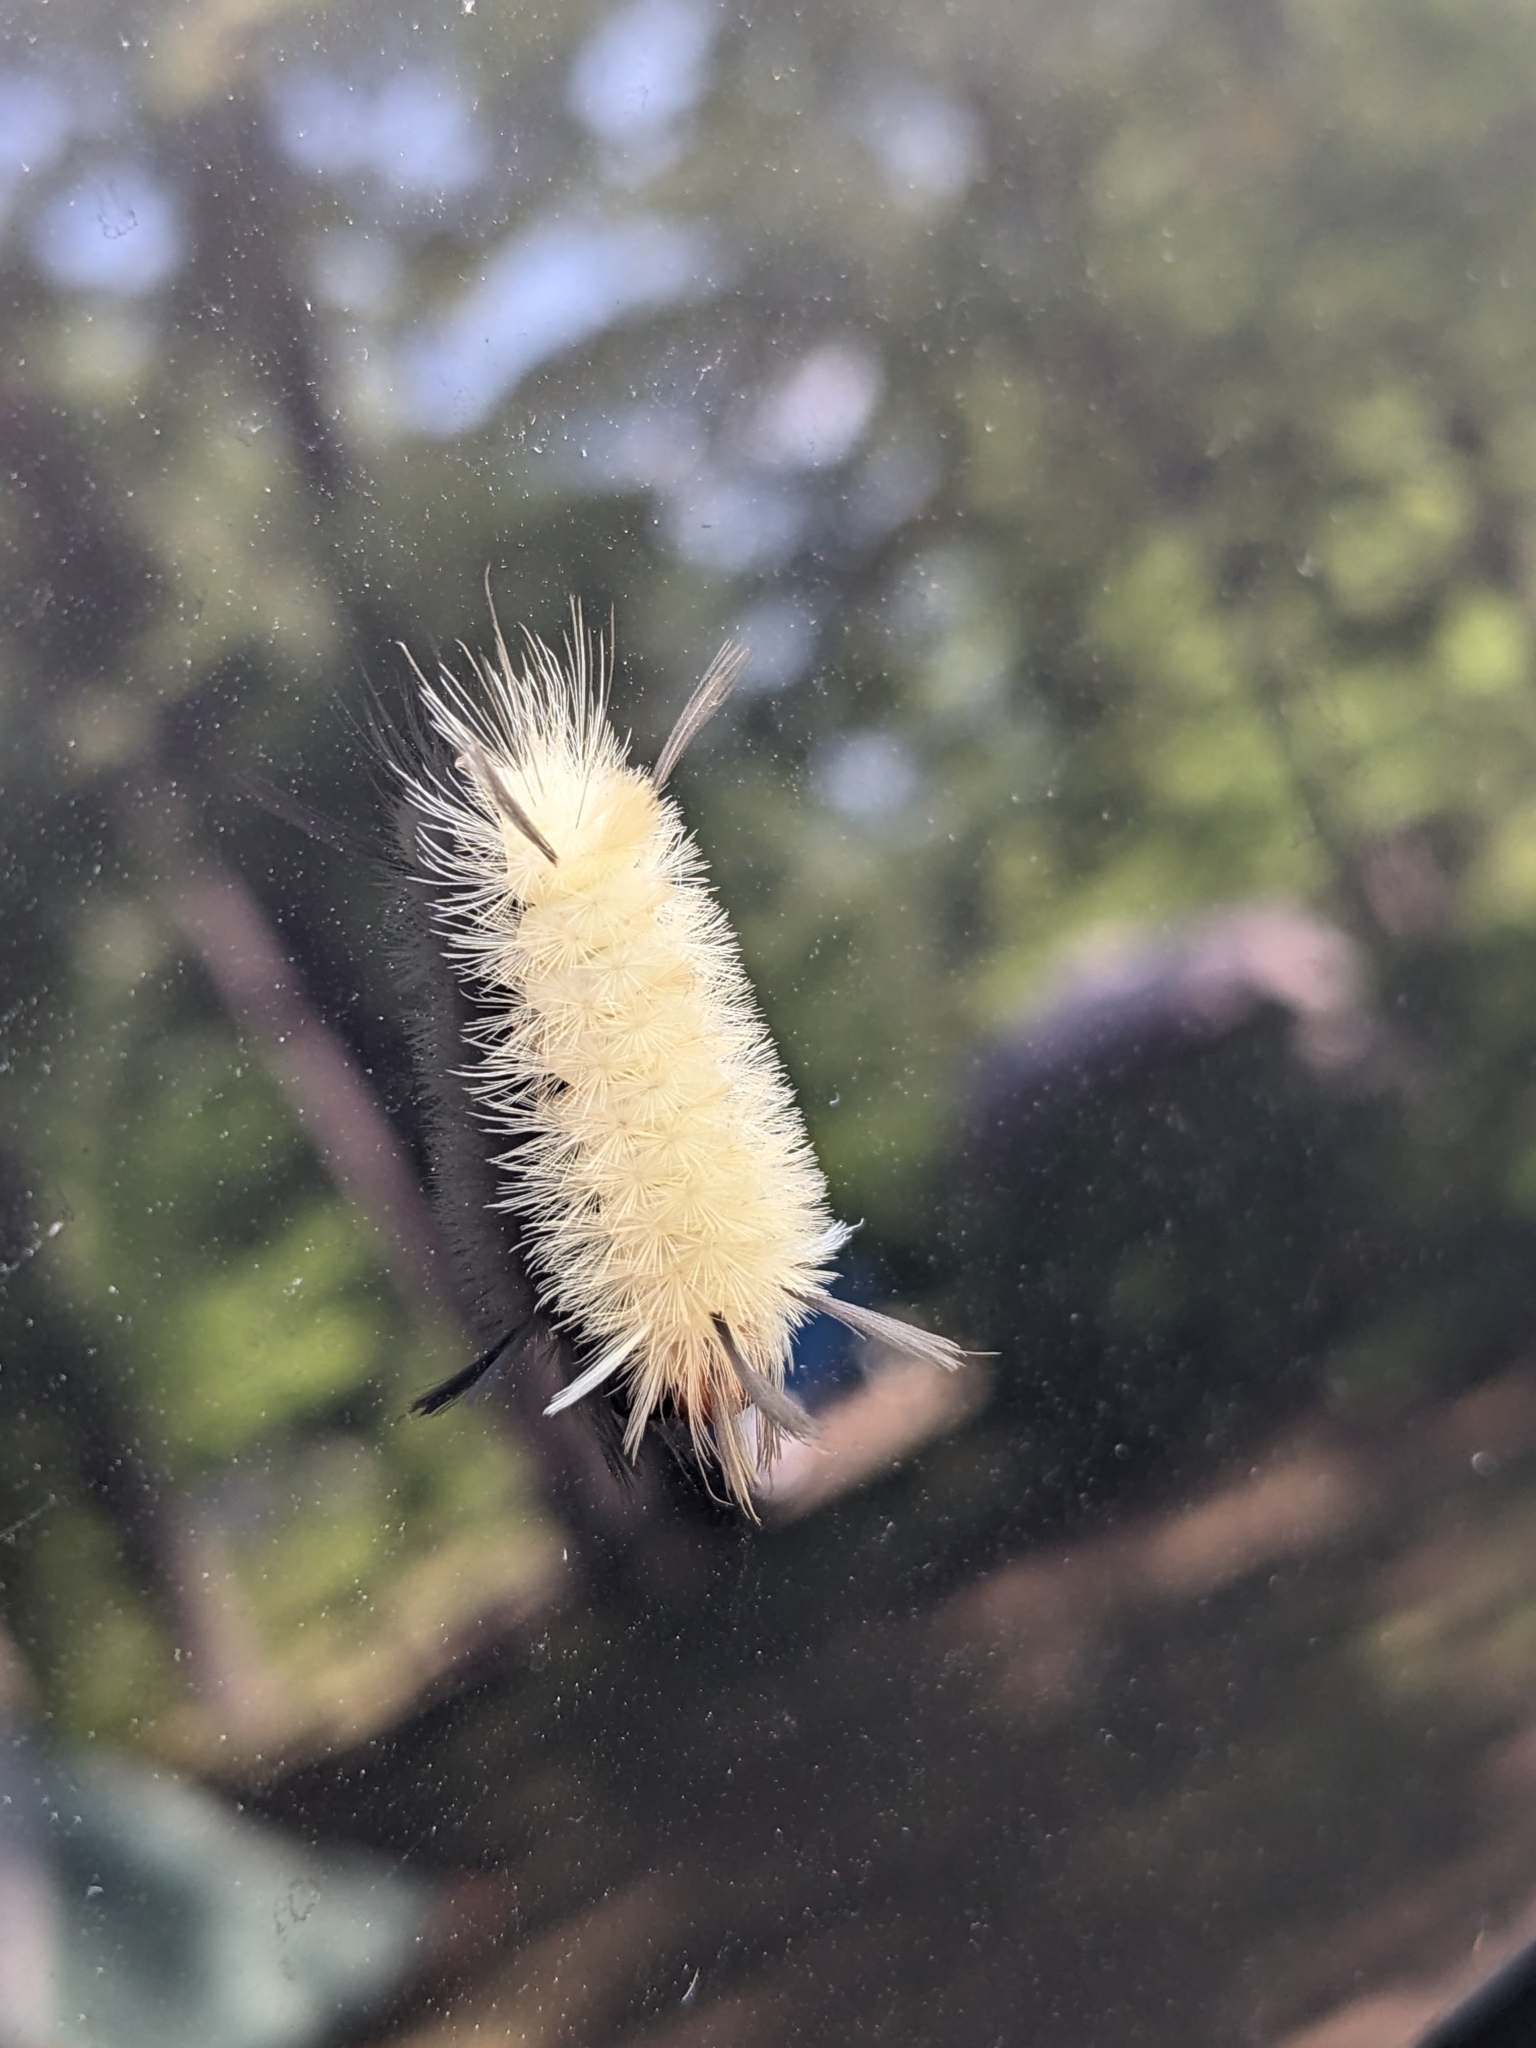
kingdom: Animalia
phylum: Arthropoda
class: Insecta
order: Lepidoptera
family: Erebidae
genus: Halysidota
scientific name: Halysidota tessellaris
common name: Banded tussock moth
